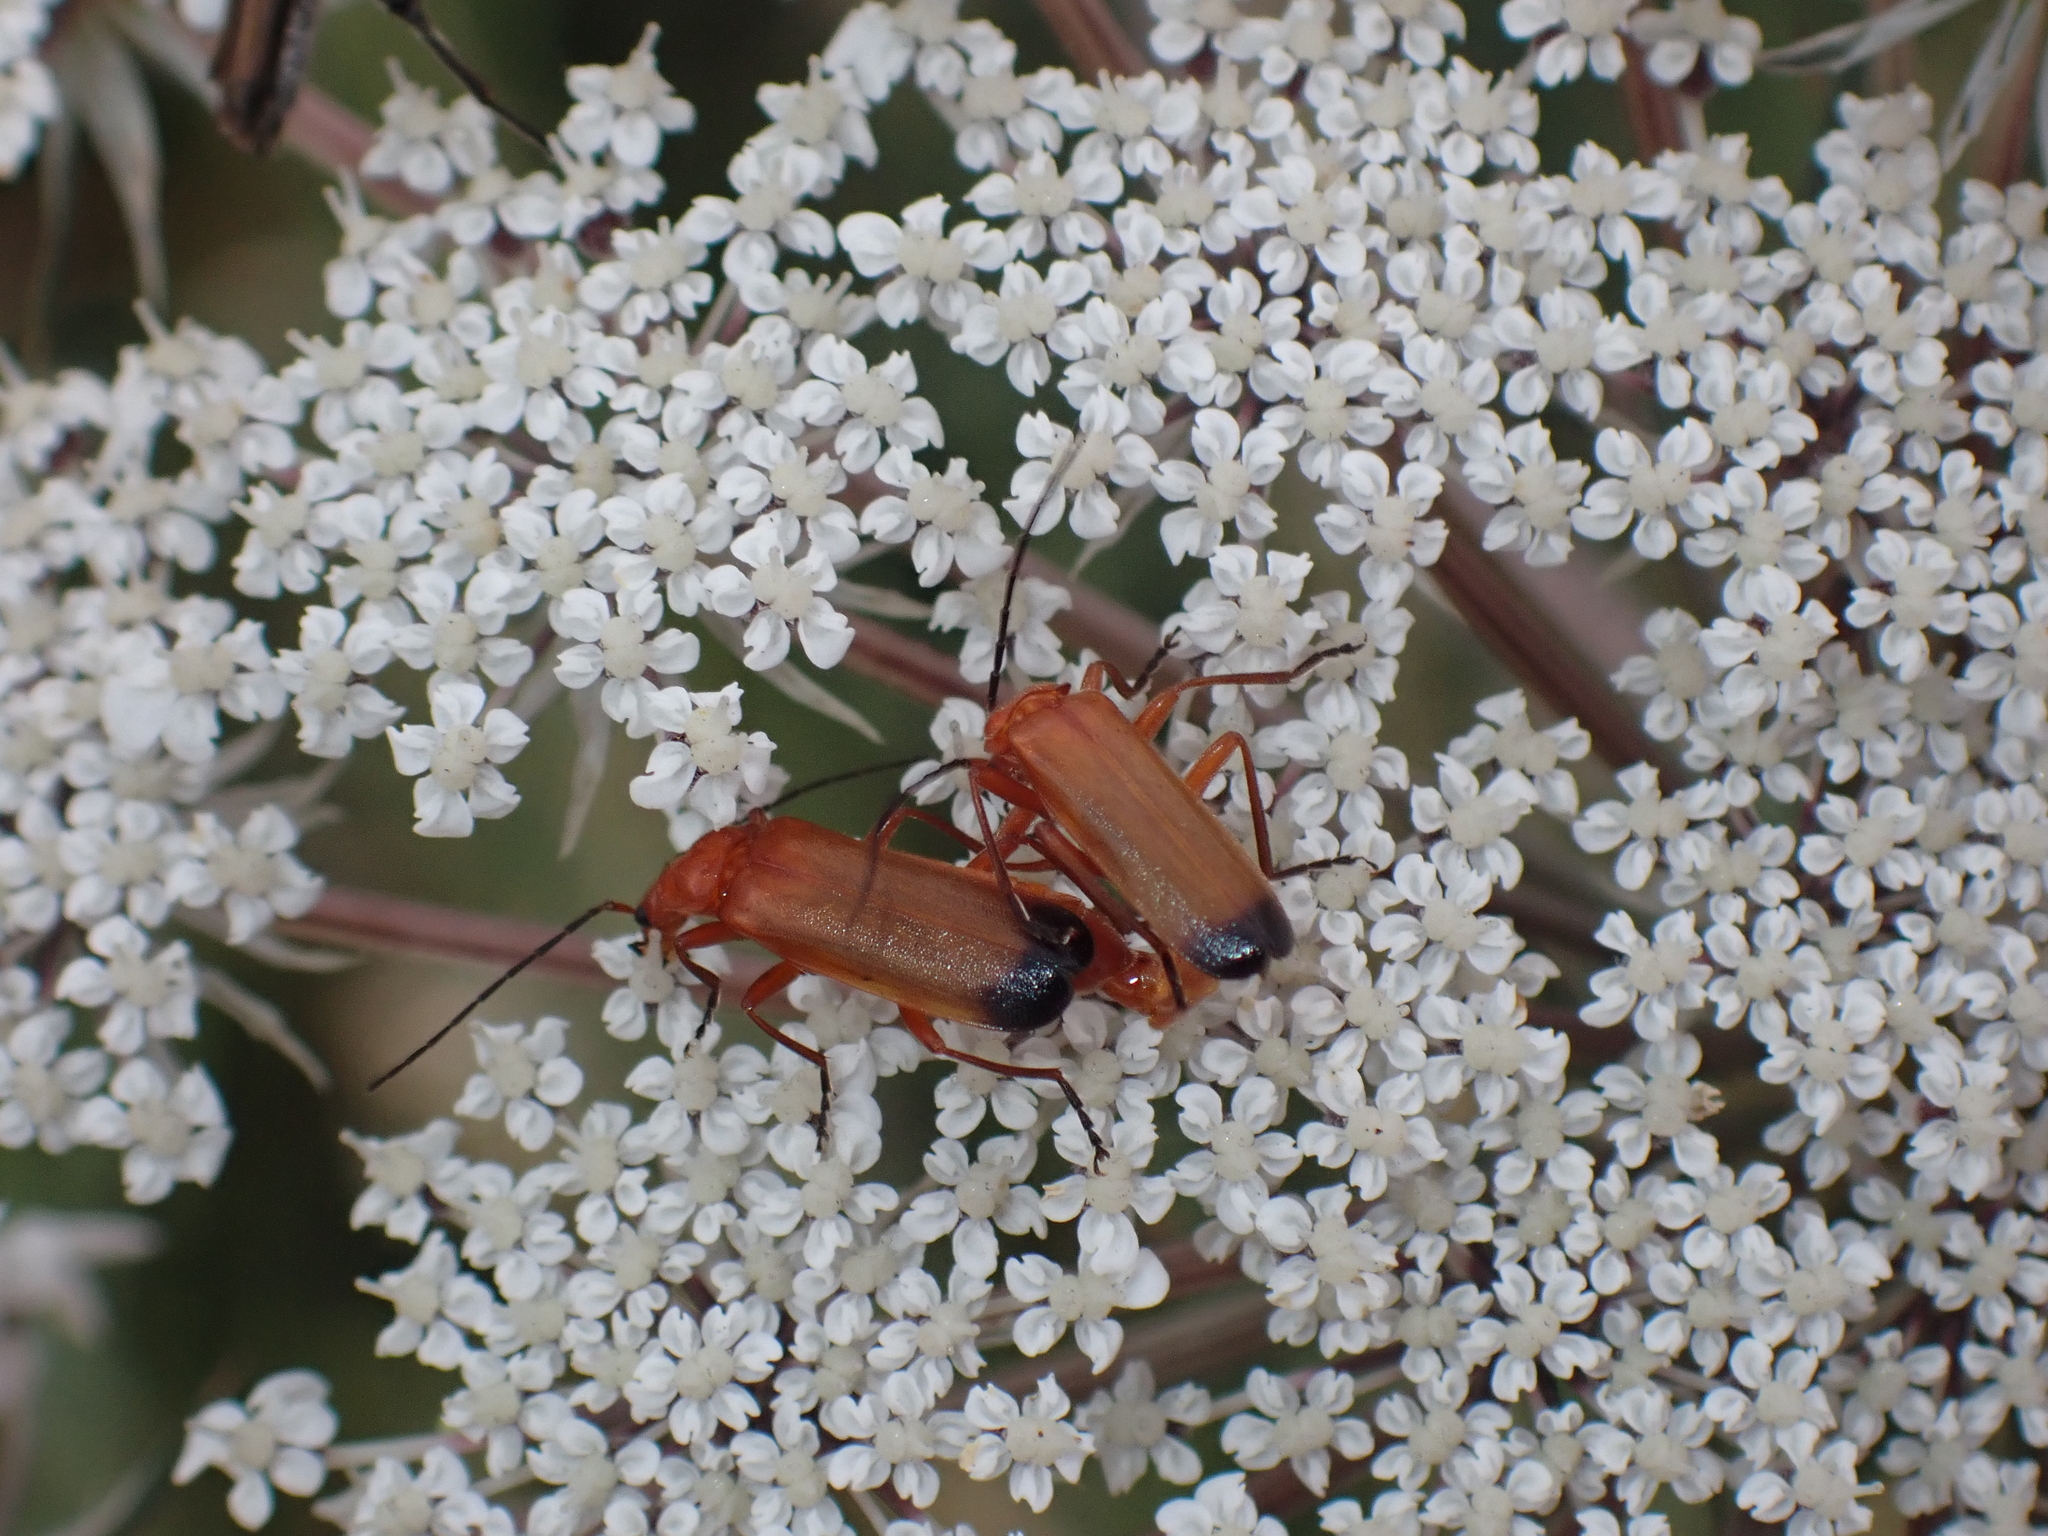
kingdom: Animalia
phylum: Arthropoda
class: Insecta
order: Coleoptera
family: Cantharidae
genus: Rhagonycha
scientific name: Rhagonycha fulva
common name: Common red soldier beetle
